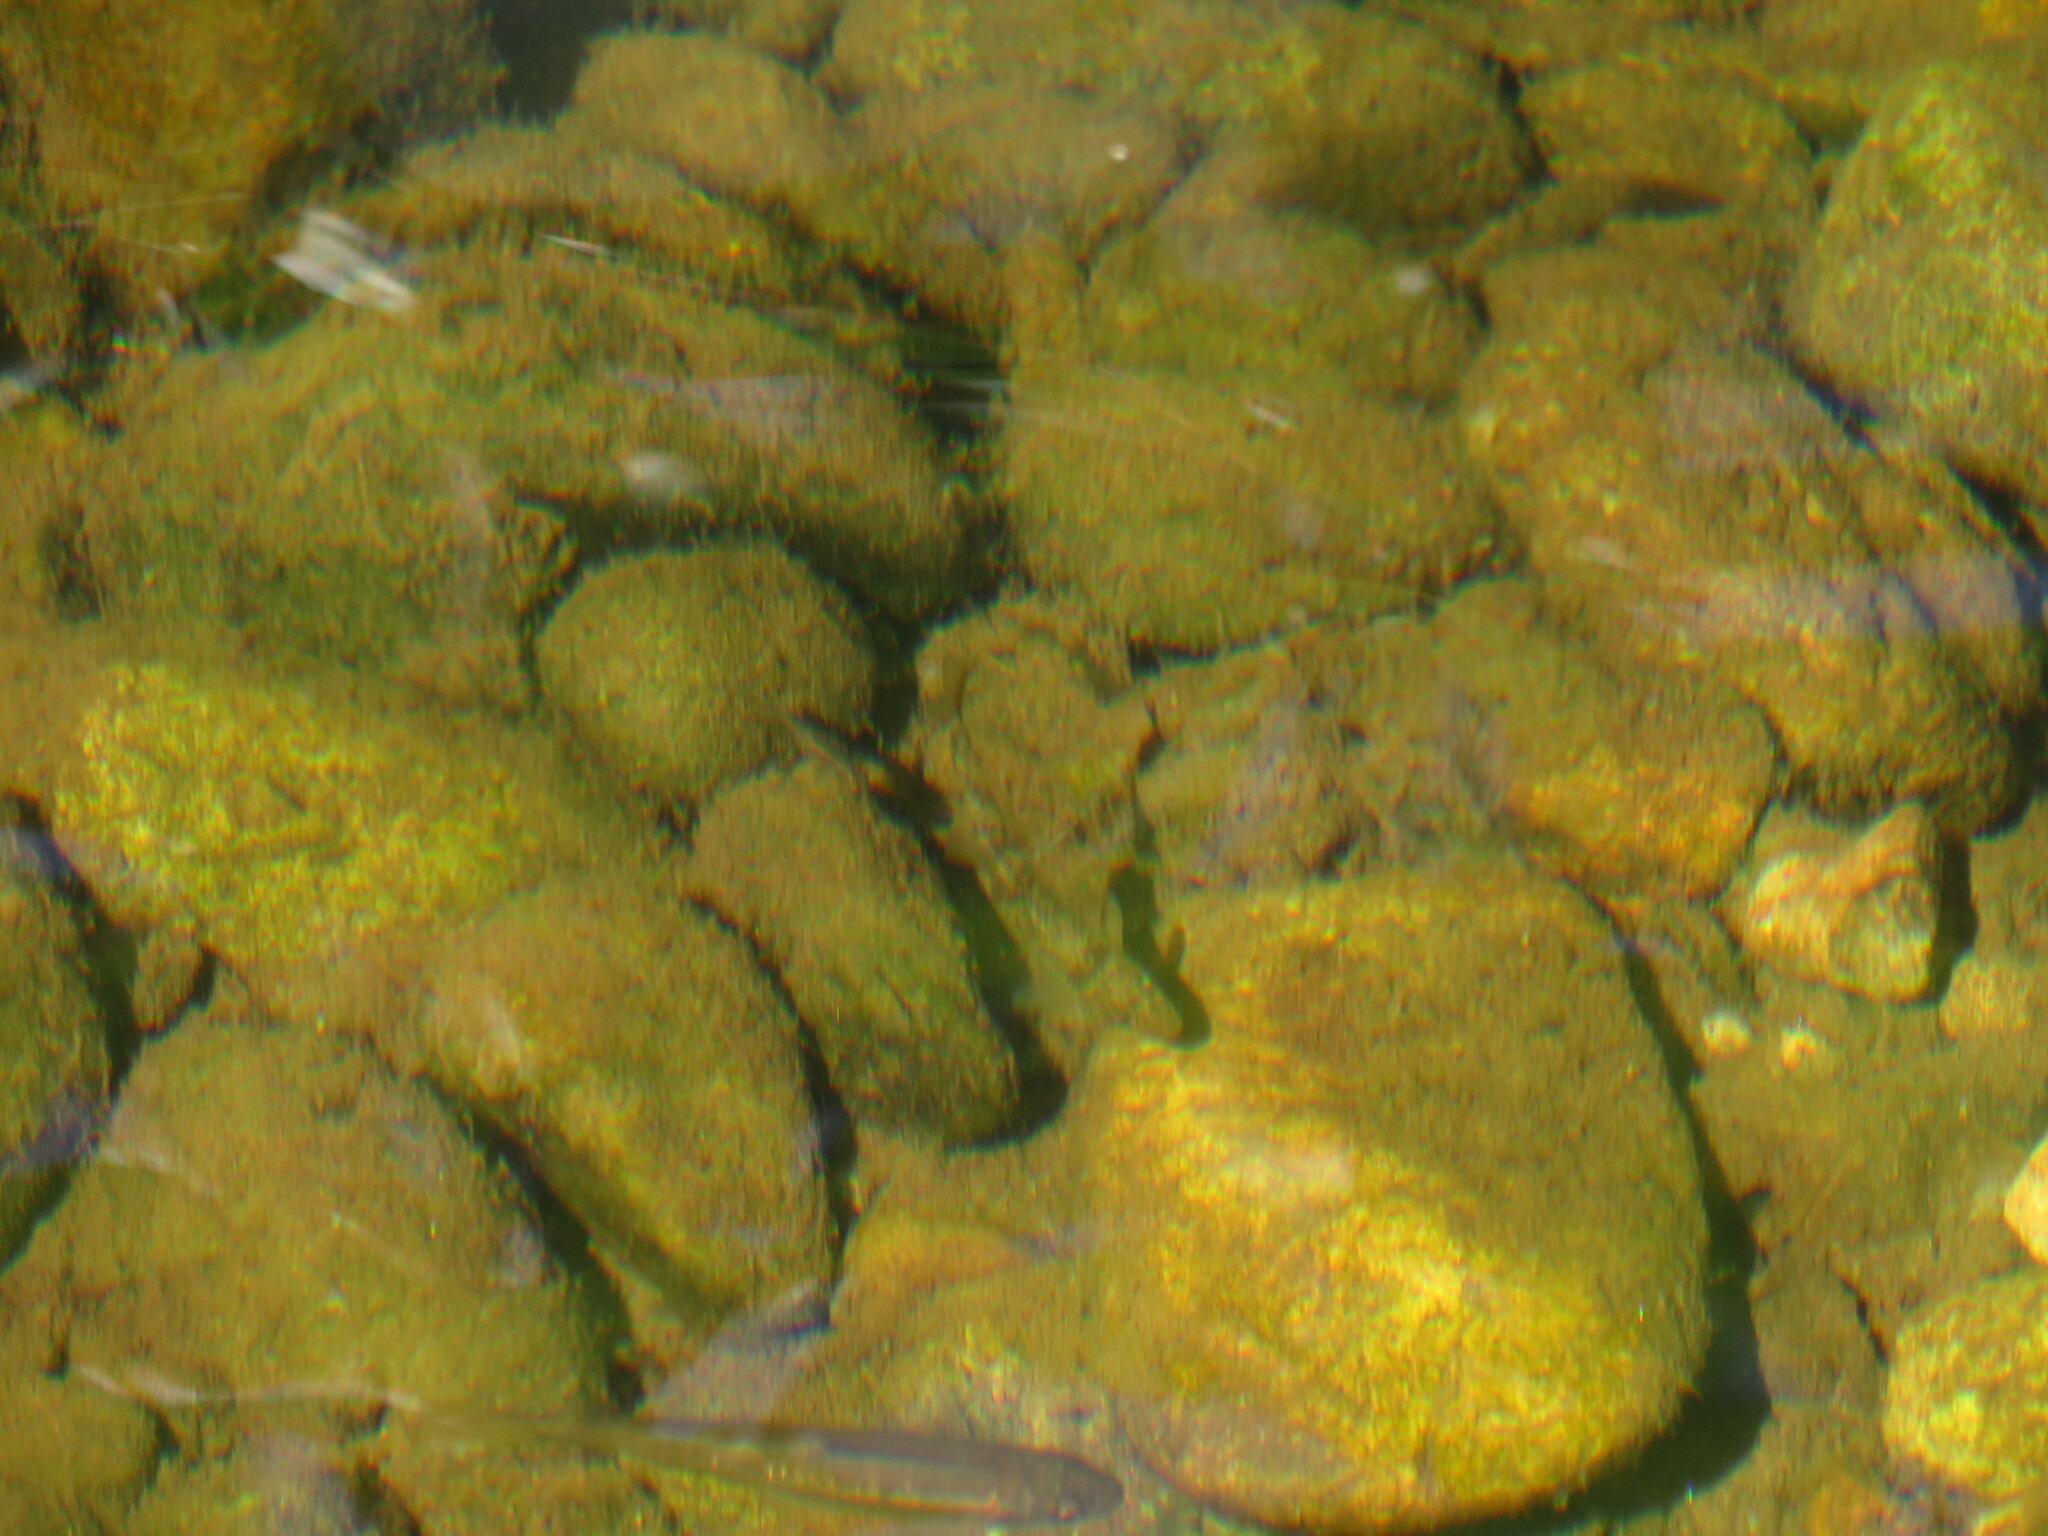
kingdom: Animalia
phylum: Chordata
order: Cypriniformes
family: Catostomidae
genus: Catostomus
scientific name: Catostomus occidentalis
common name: Goose lake sucker
